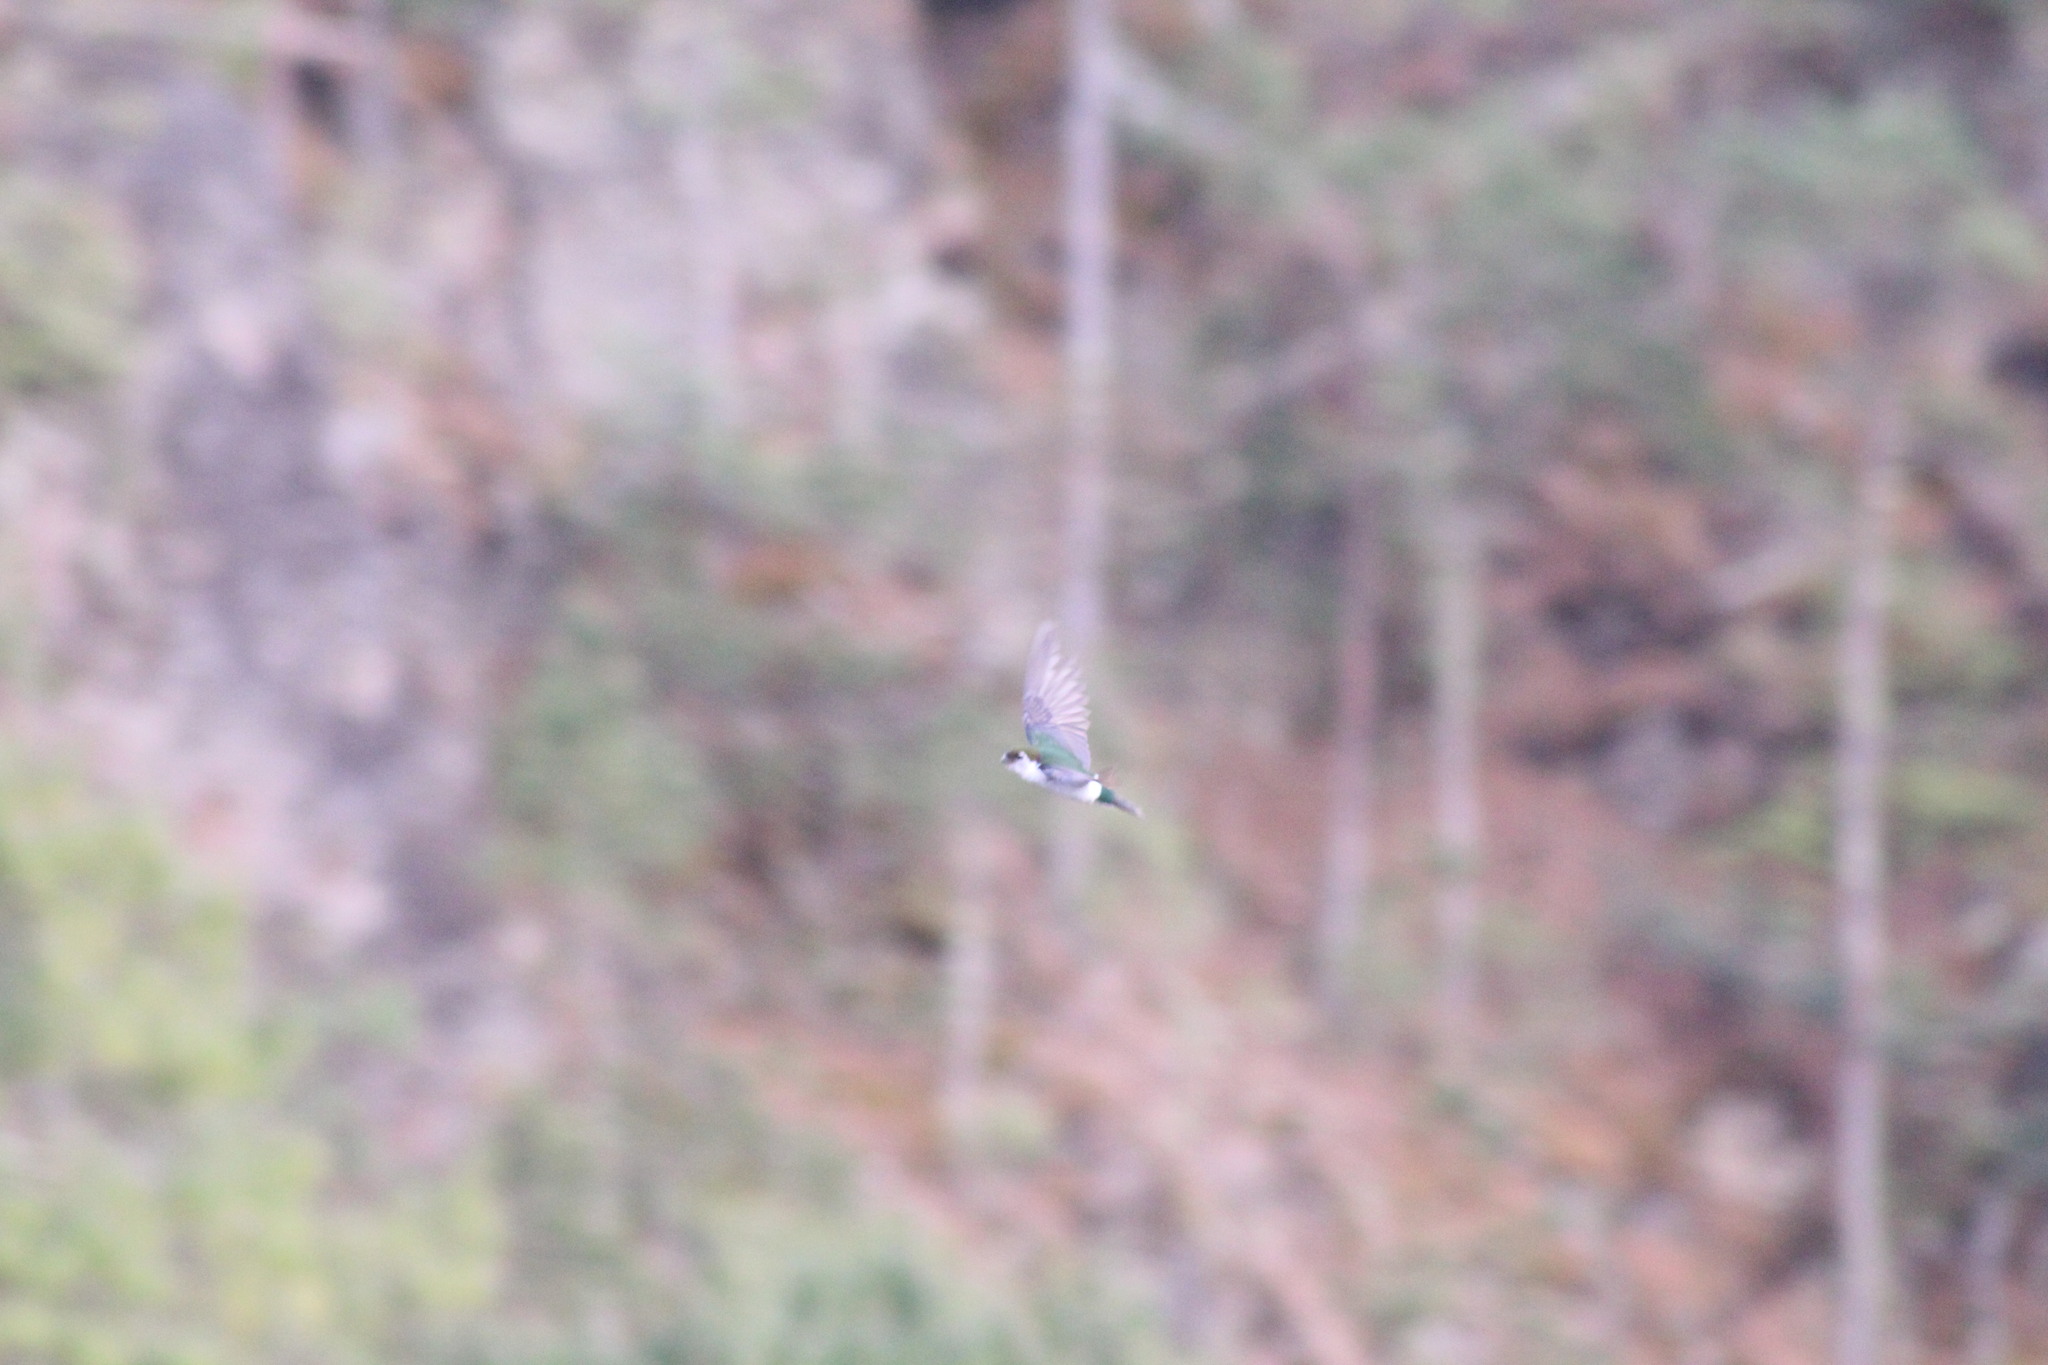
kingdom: Animalia
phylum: Chordata
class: Aves
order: Passeriformes
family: Hirundinidae
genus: Tachycineta
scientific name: Tachycineta thalassina
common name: Violet-green swallow
